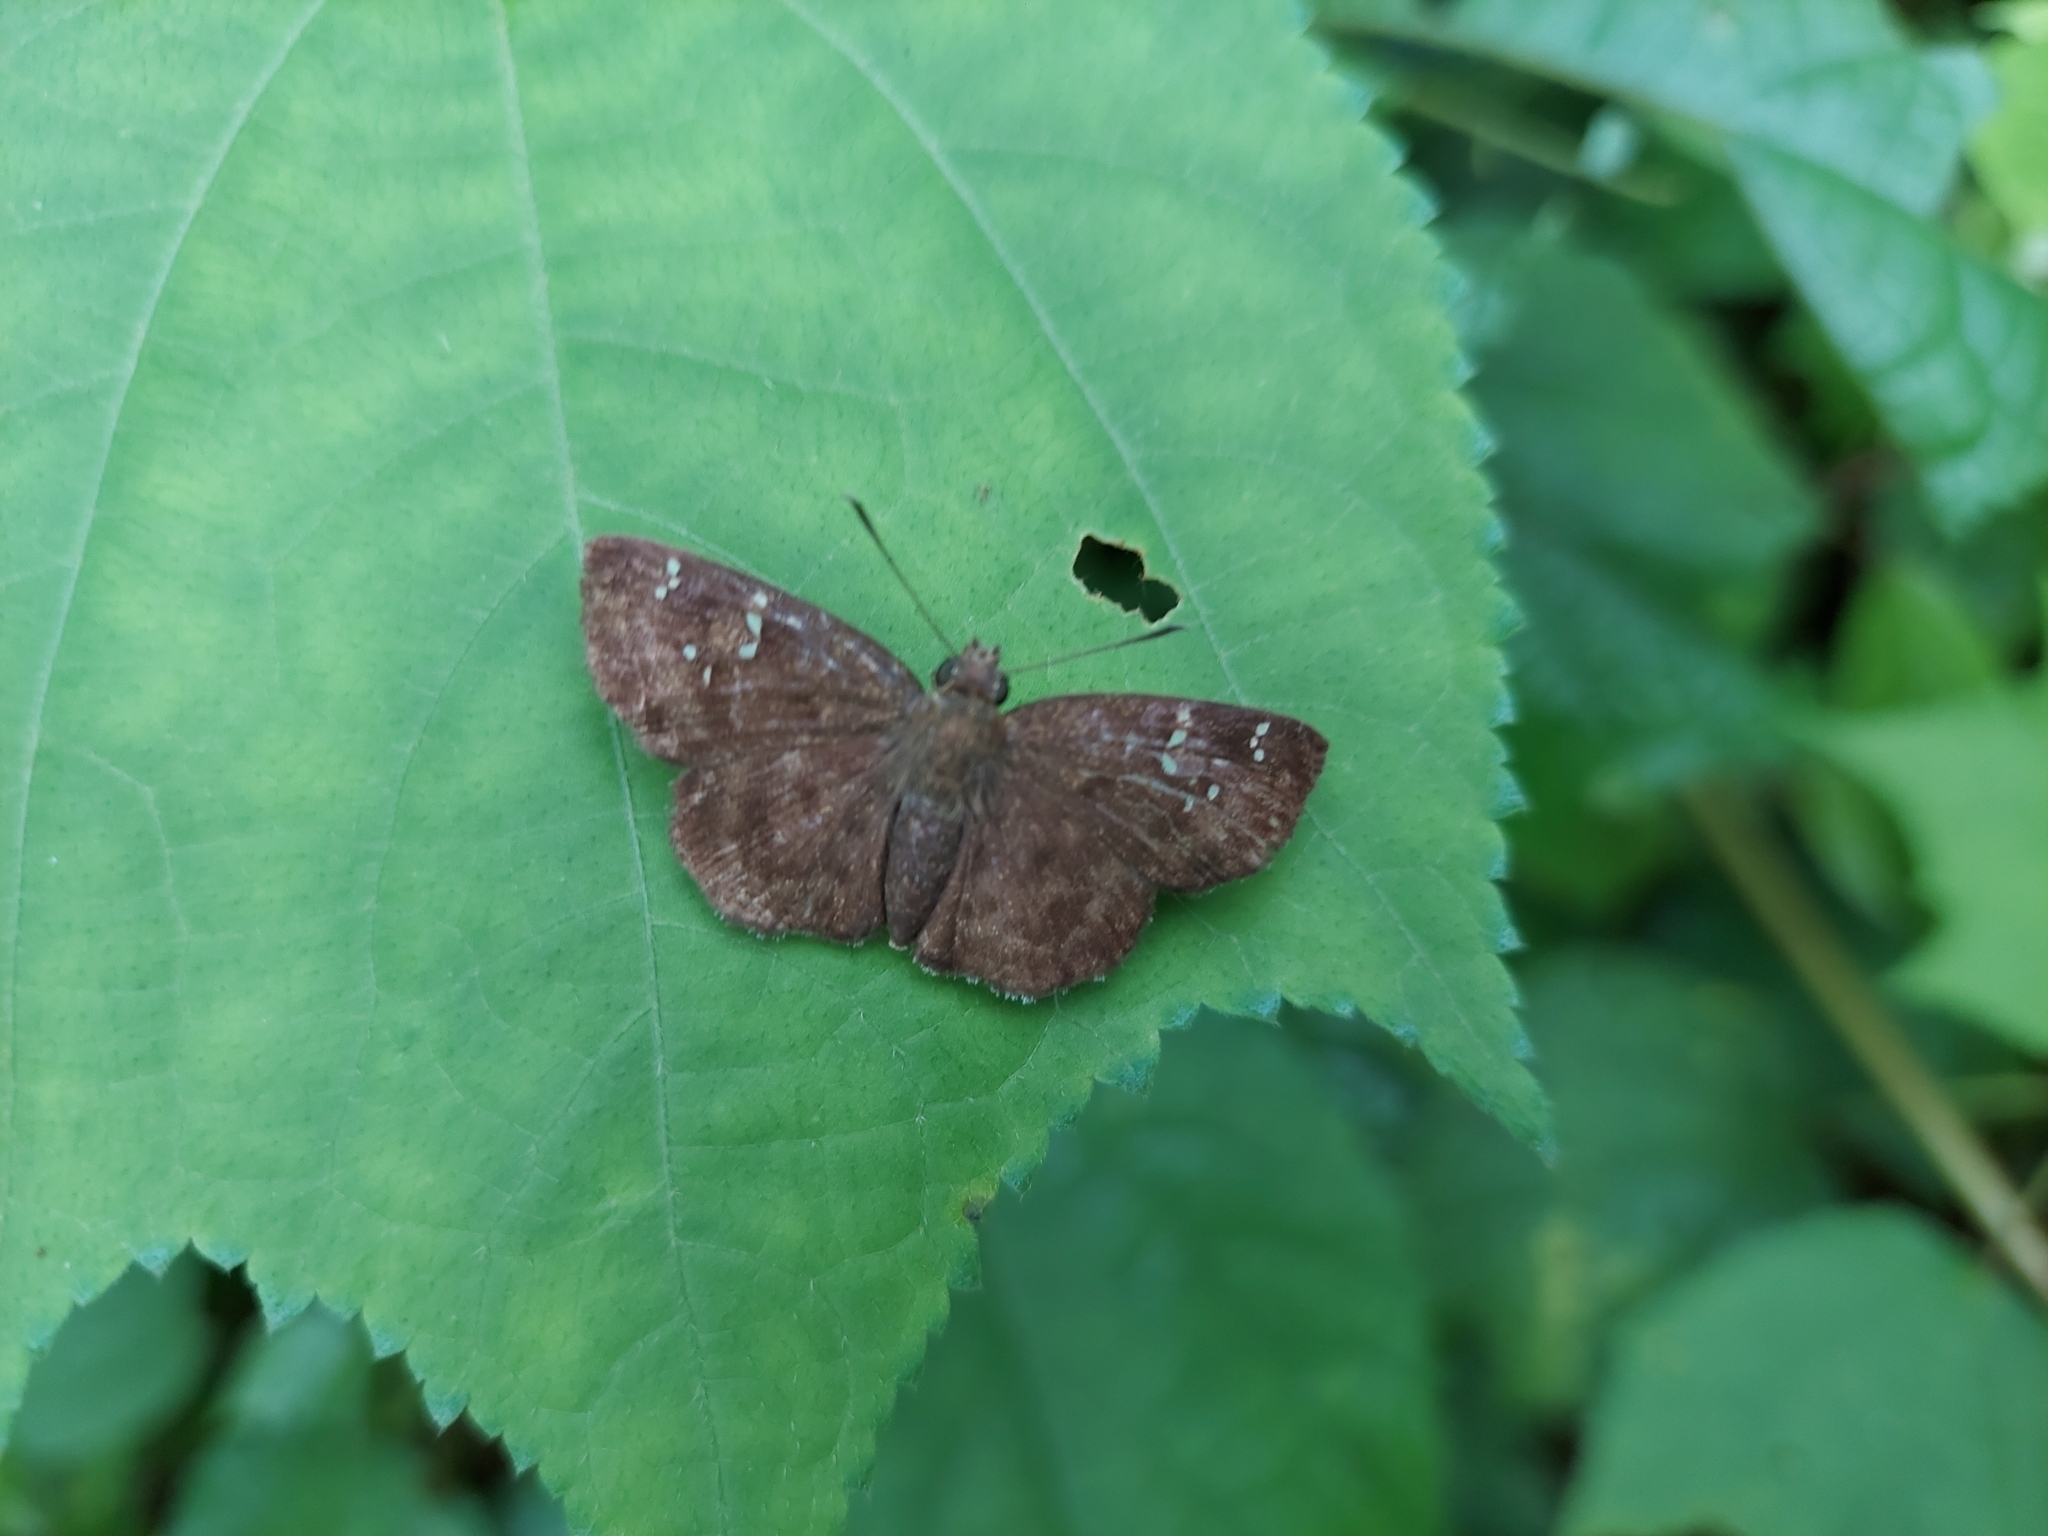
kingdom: Animalia
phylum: Arthropoda
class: Insecta
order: Lepidoptera
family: Hesperiidae
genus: Sarangesa
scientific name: Sarangesa dasahara
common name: Common small flat
